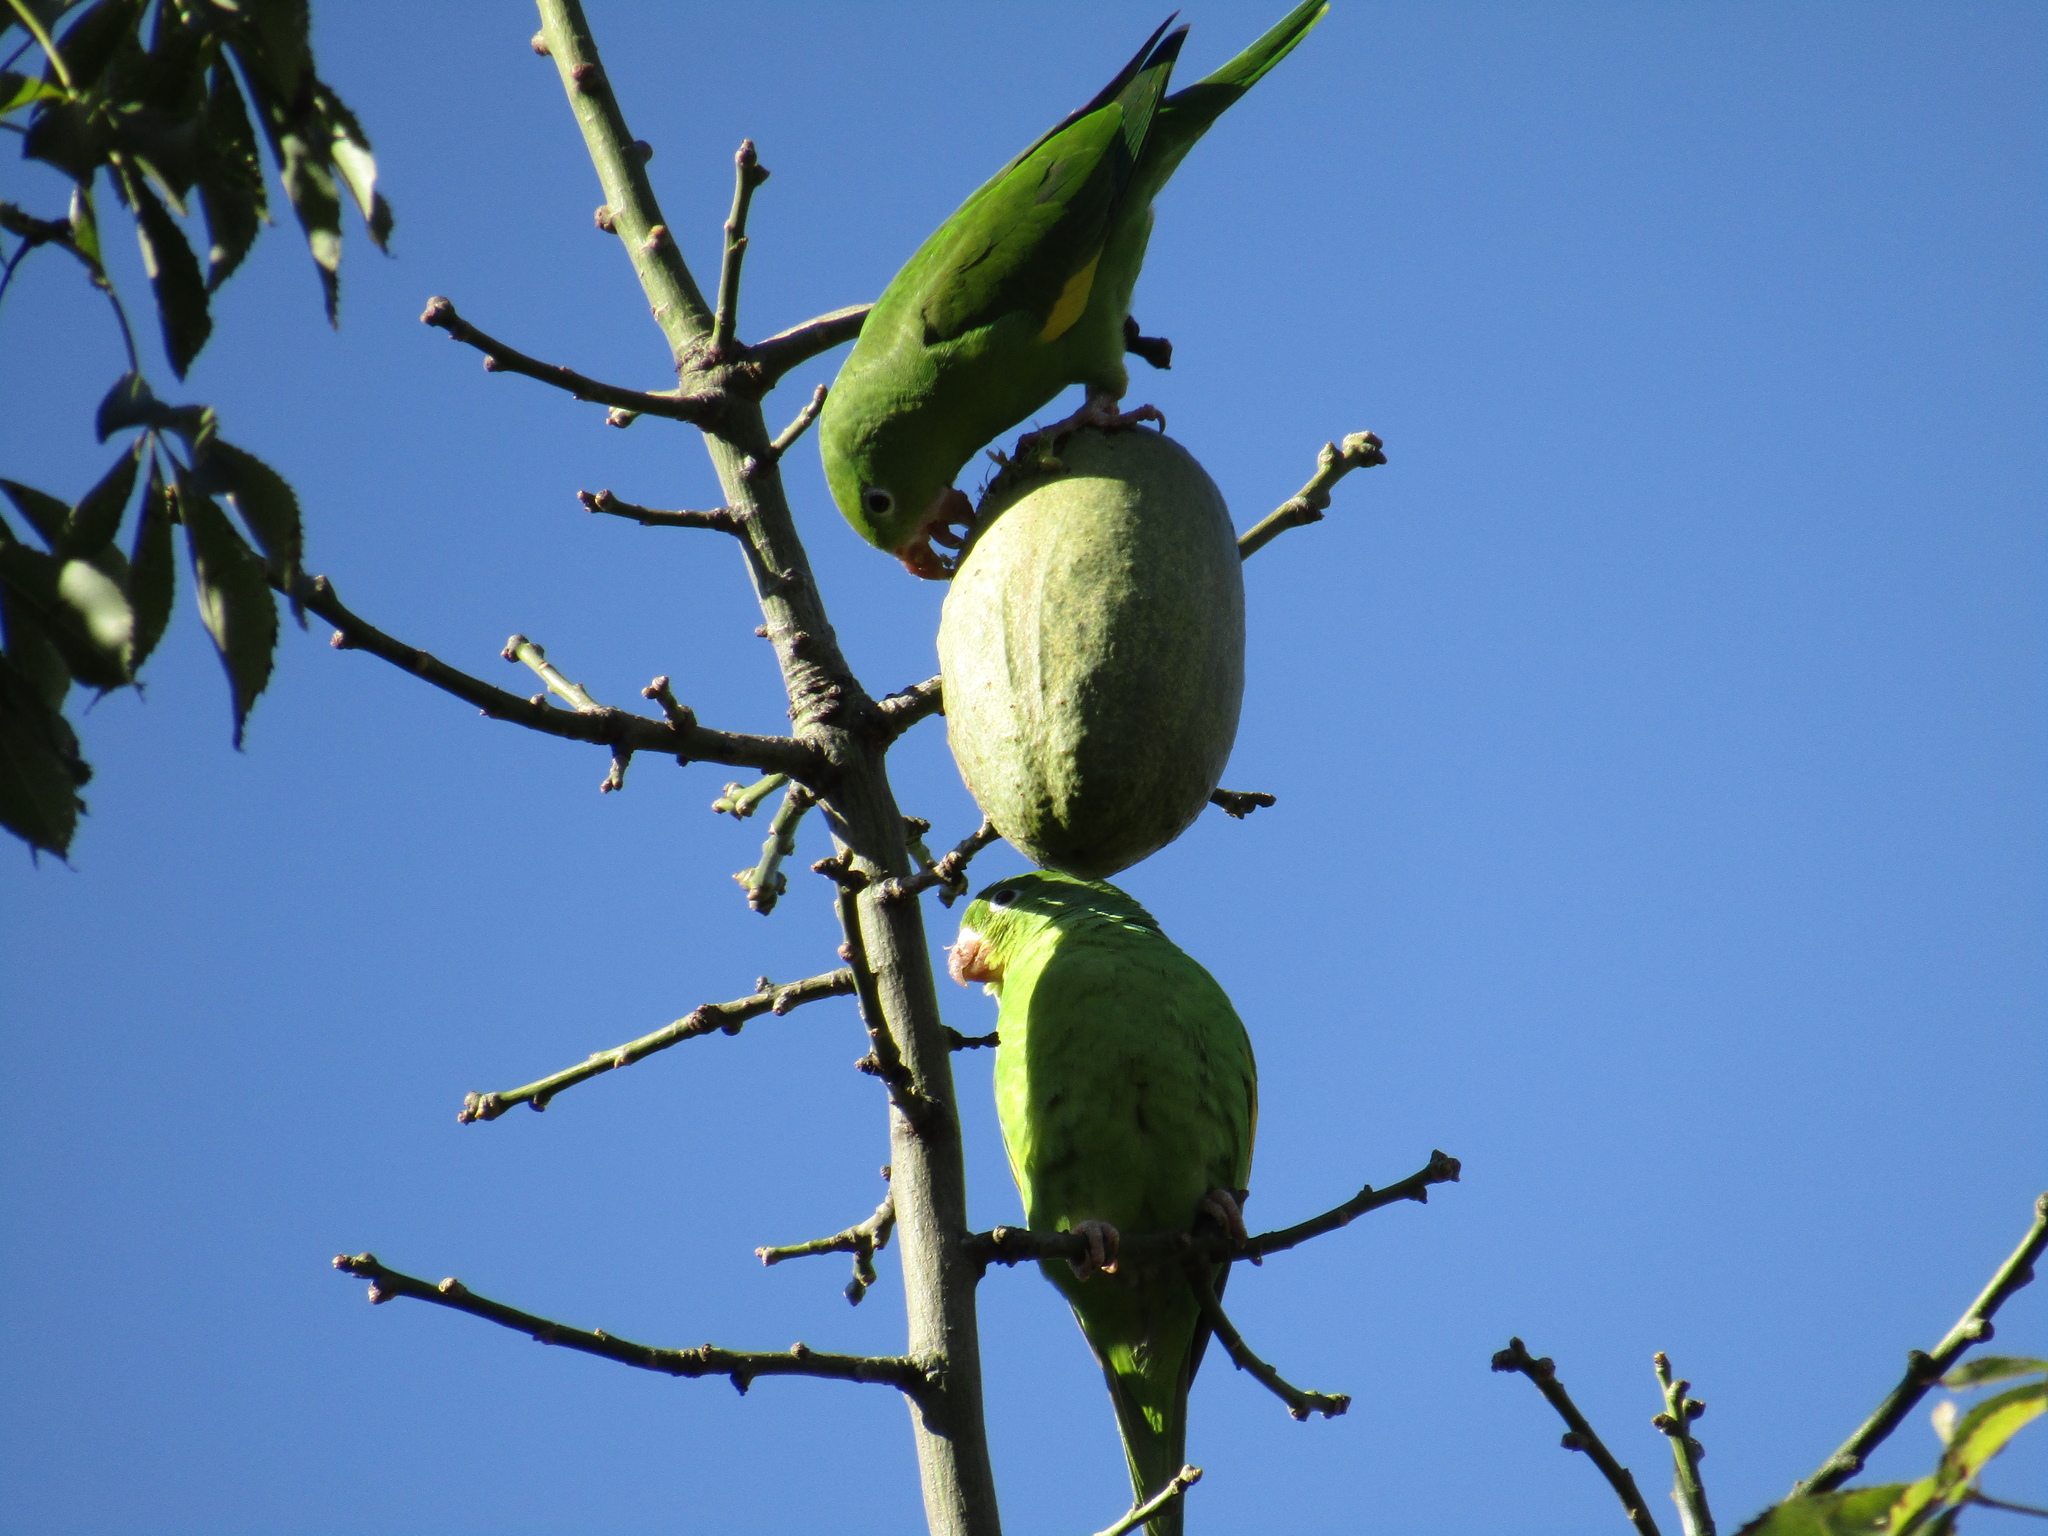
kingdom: Animalia
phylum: Chordata
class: Aves
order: Psittaciformes
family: Psittacidae
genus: Brotogeris
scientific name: Brotogeris chiriri
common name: Yellow-chevroned parakeet
